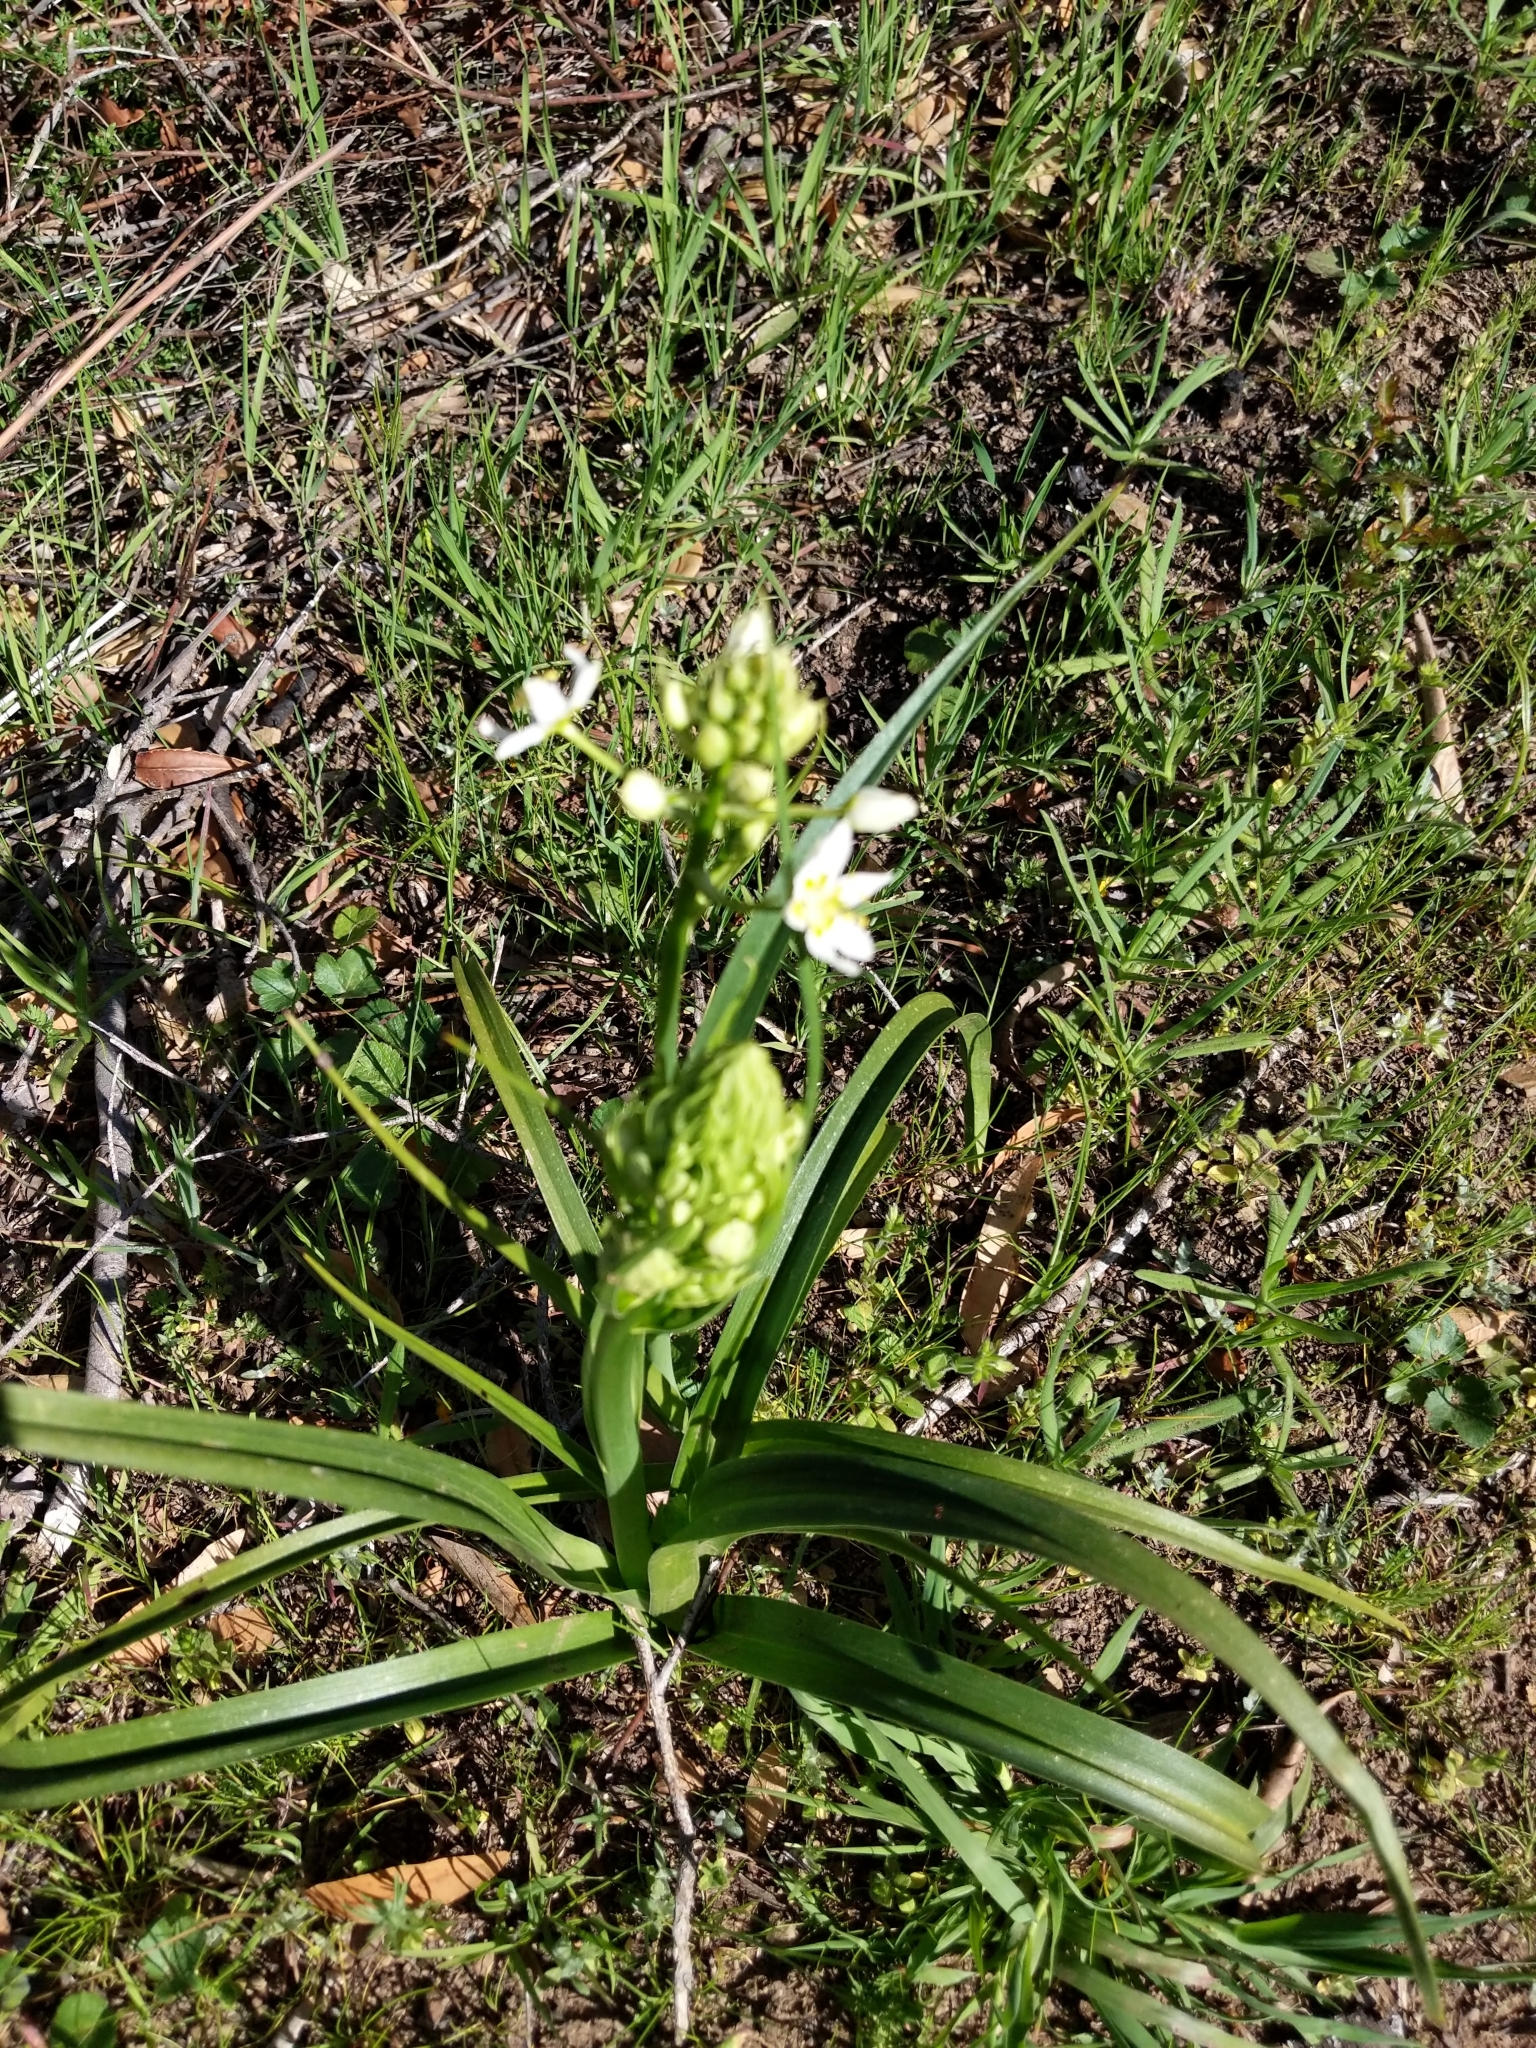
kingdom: Plantae
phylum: Tracheophyta
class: Liliopsida
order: Liliales
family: Melanthiaceae
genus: Toxicoscordion
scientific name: Toxicoscordion fremontii
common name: Fremont's death camas
